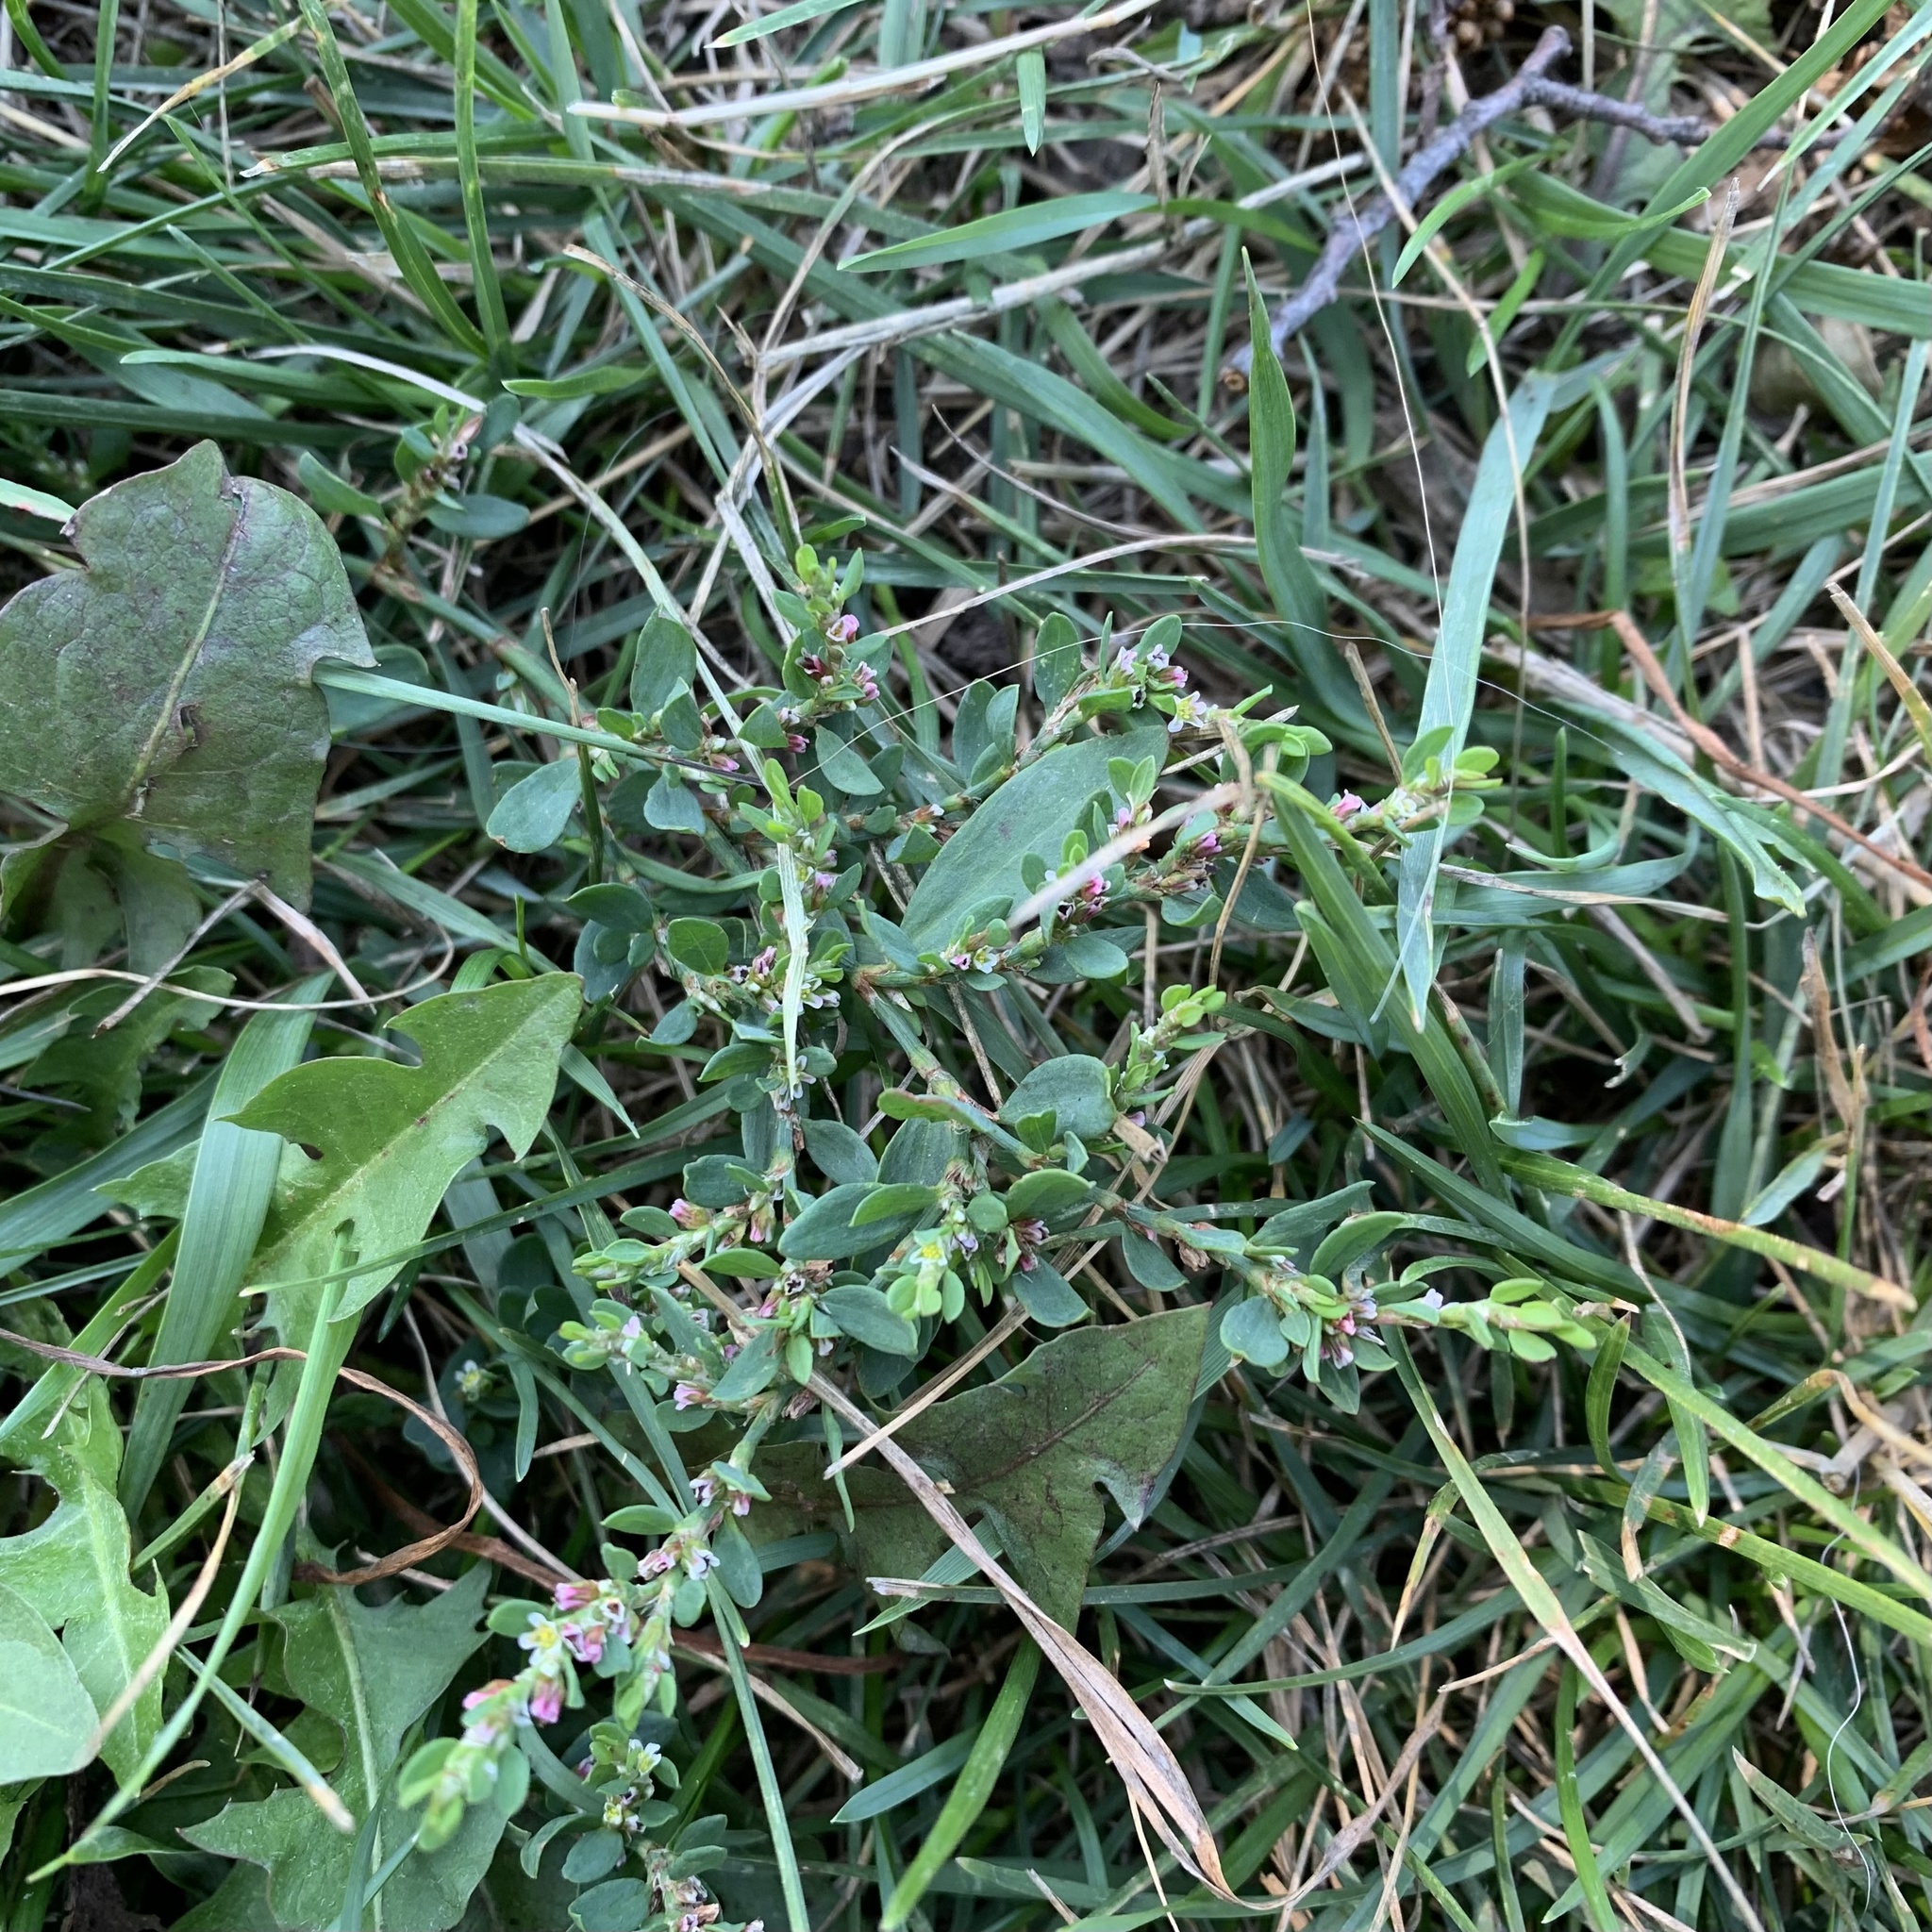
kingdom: Plantae
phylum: Tracheophyta
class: Magnoliopsida
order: Caryophyllales
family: Polygonaceae
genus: Polygonum
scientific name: Polygonum aviculare
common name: Prostrate knotweed
